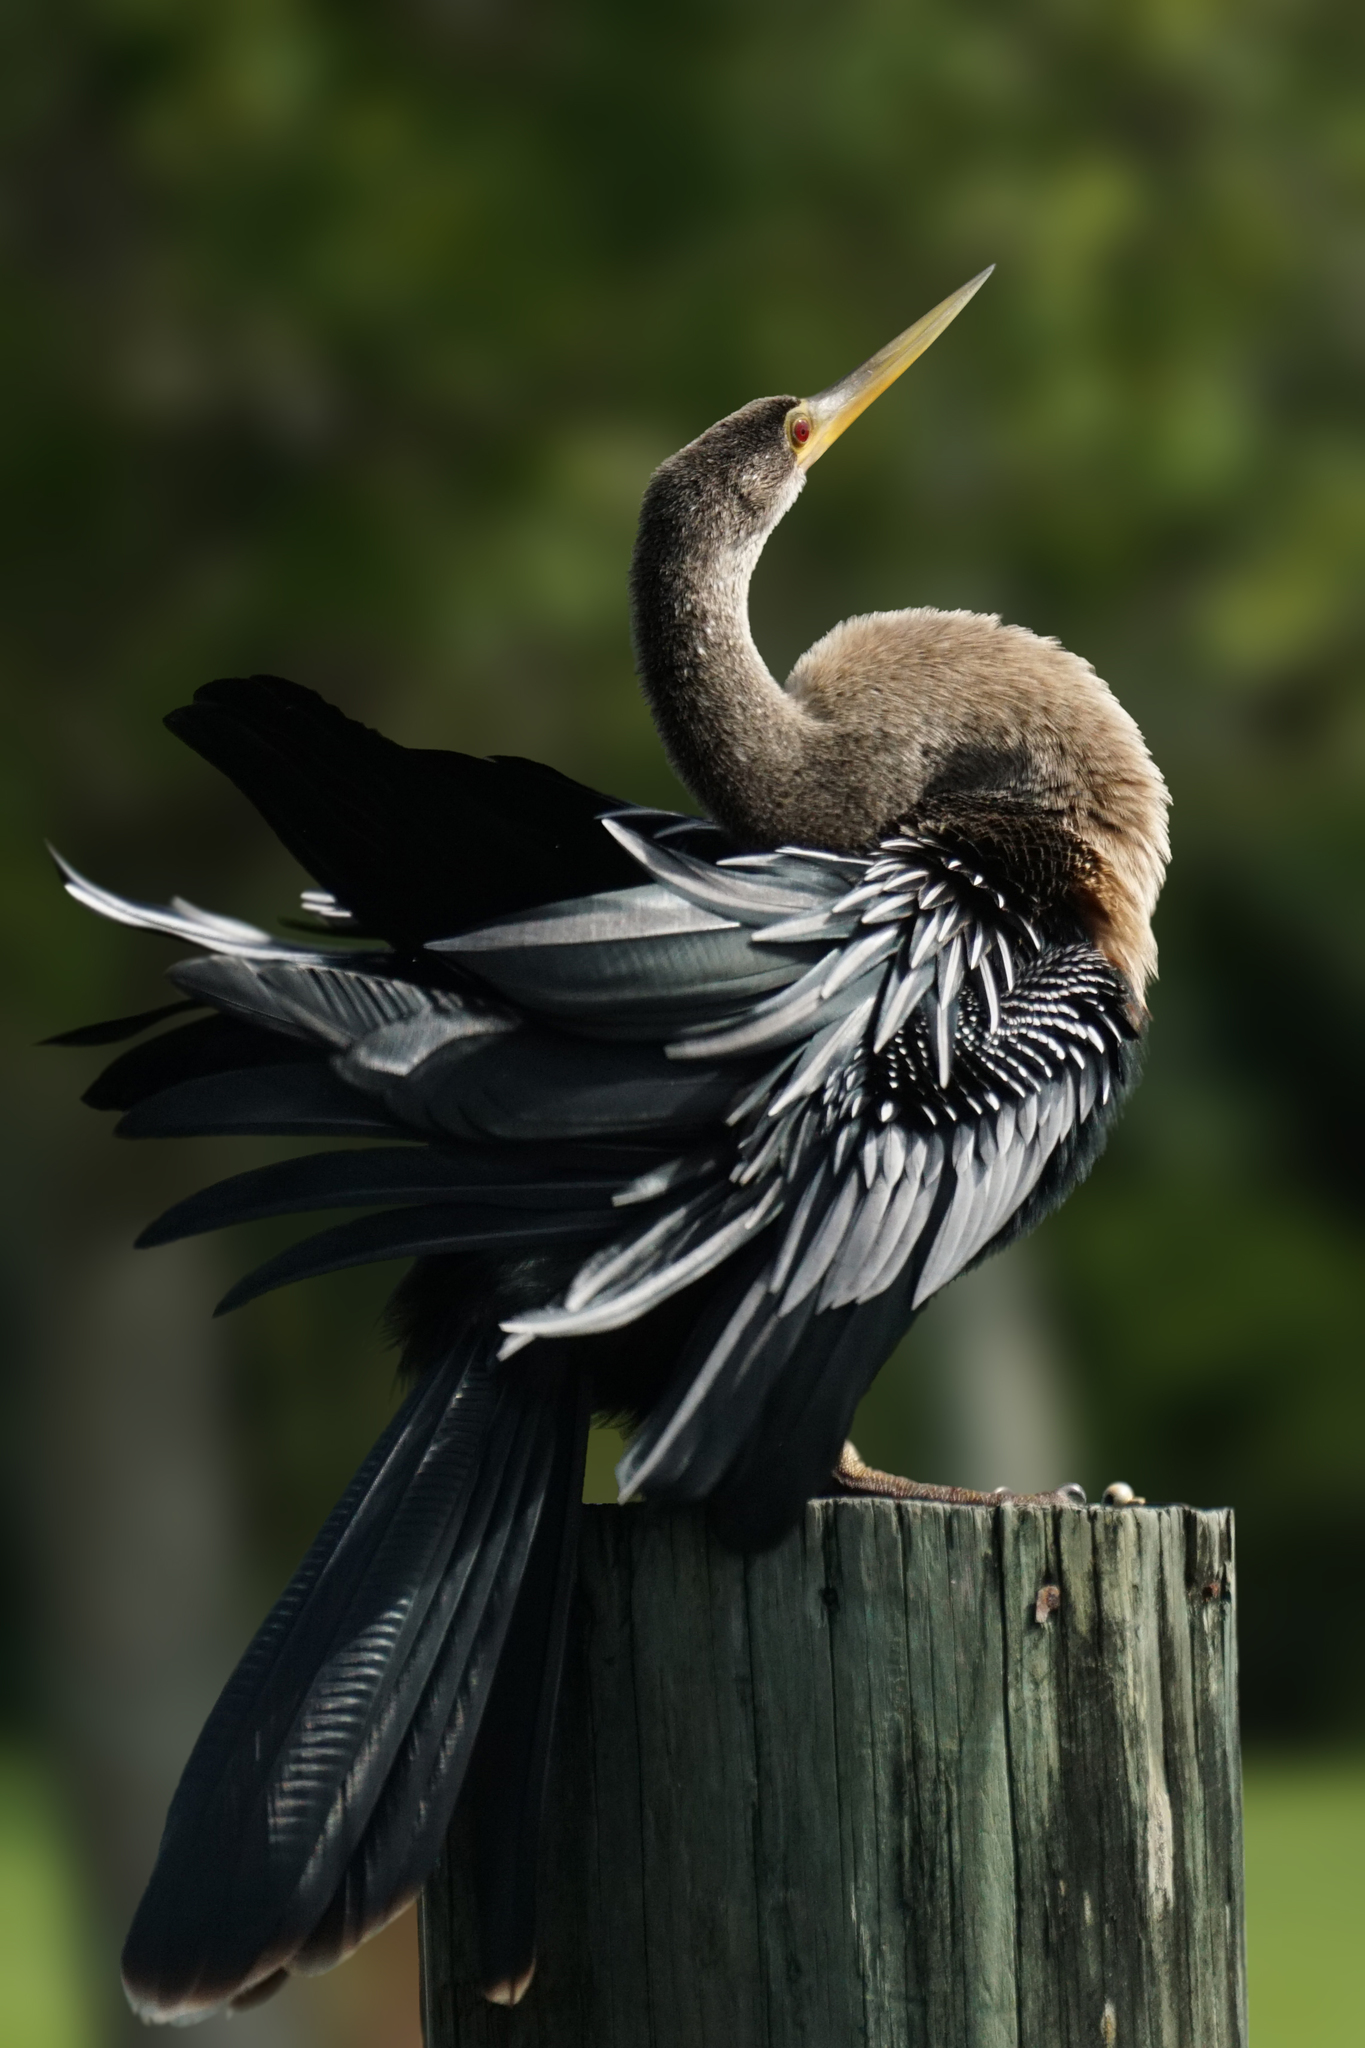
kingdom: Animalia
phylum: Chordata
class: Aves
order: Suliformes
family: Anhingidae
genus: Anhinga
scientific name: Anhinga anhinga
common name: Anhinga
